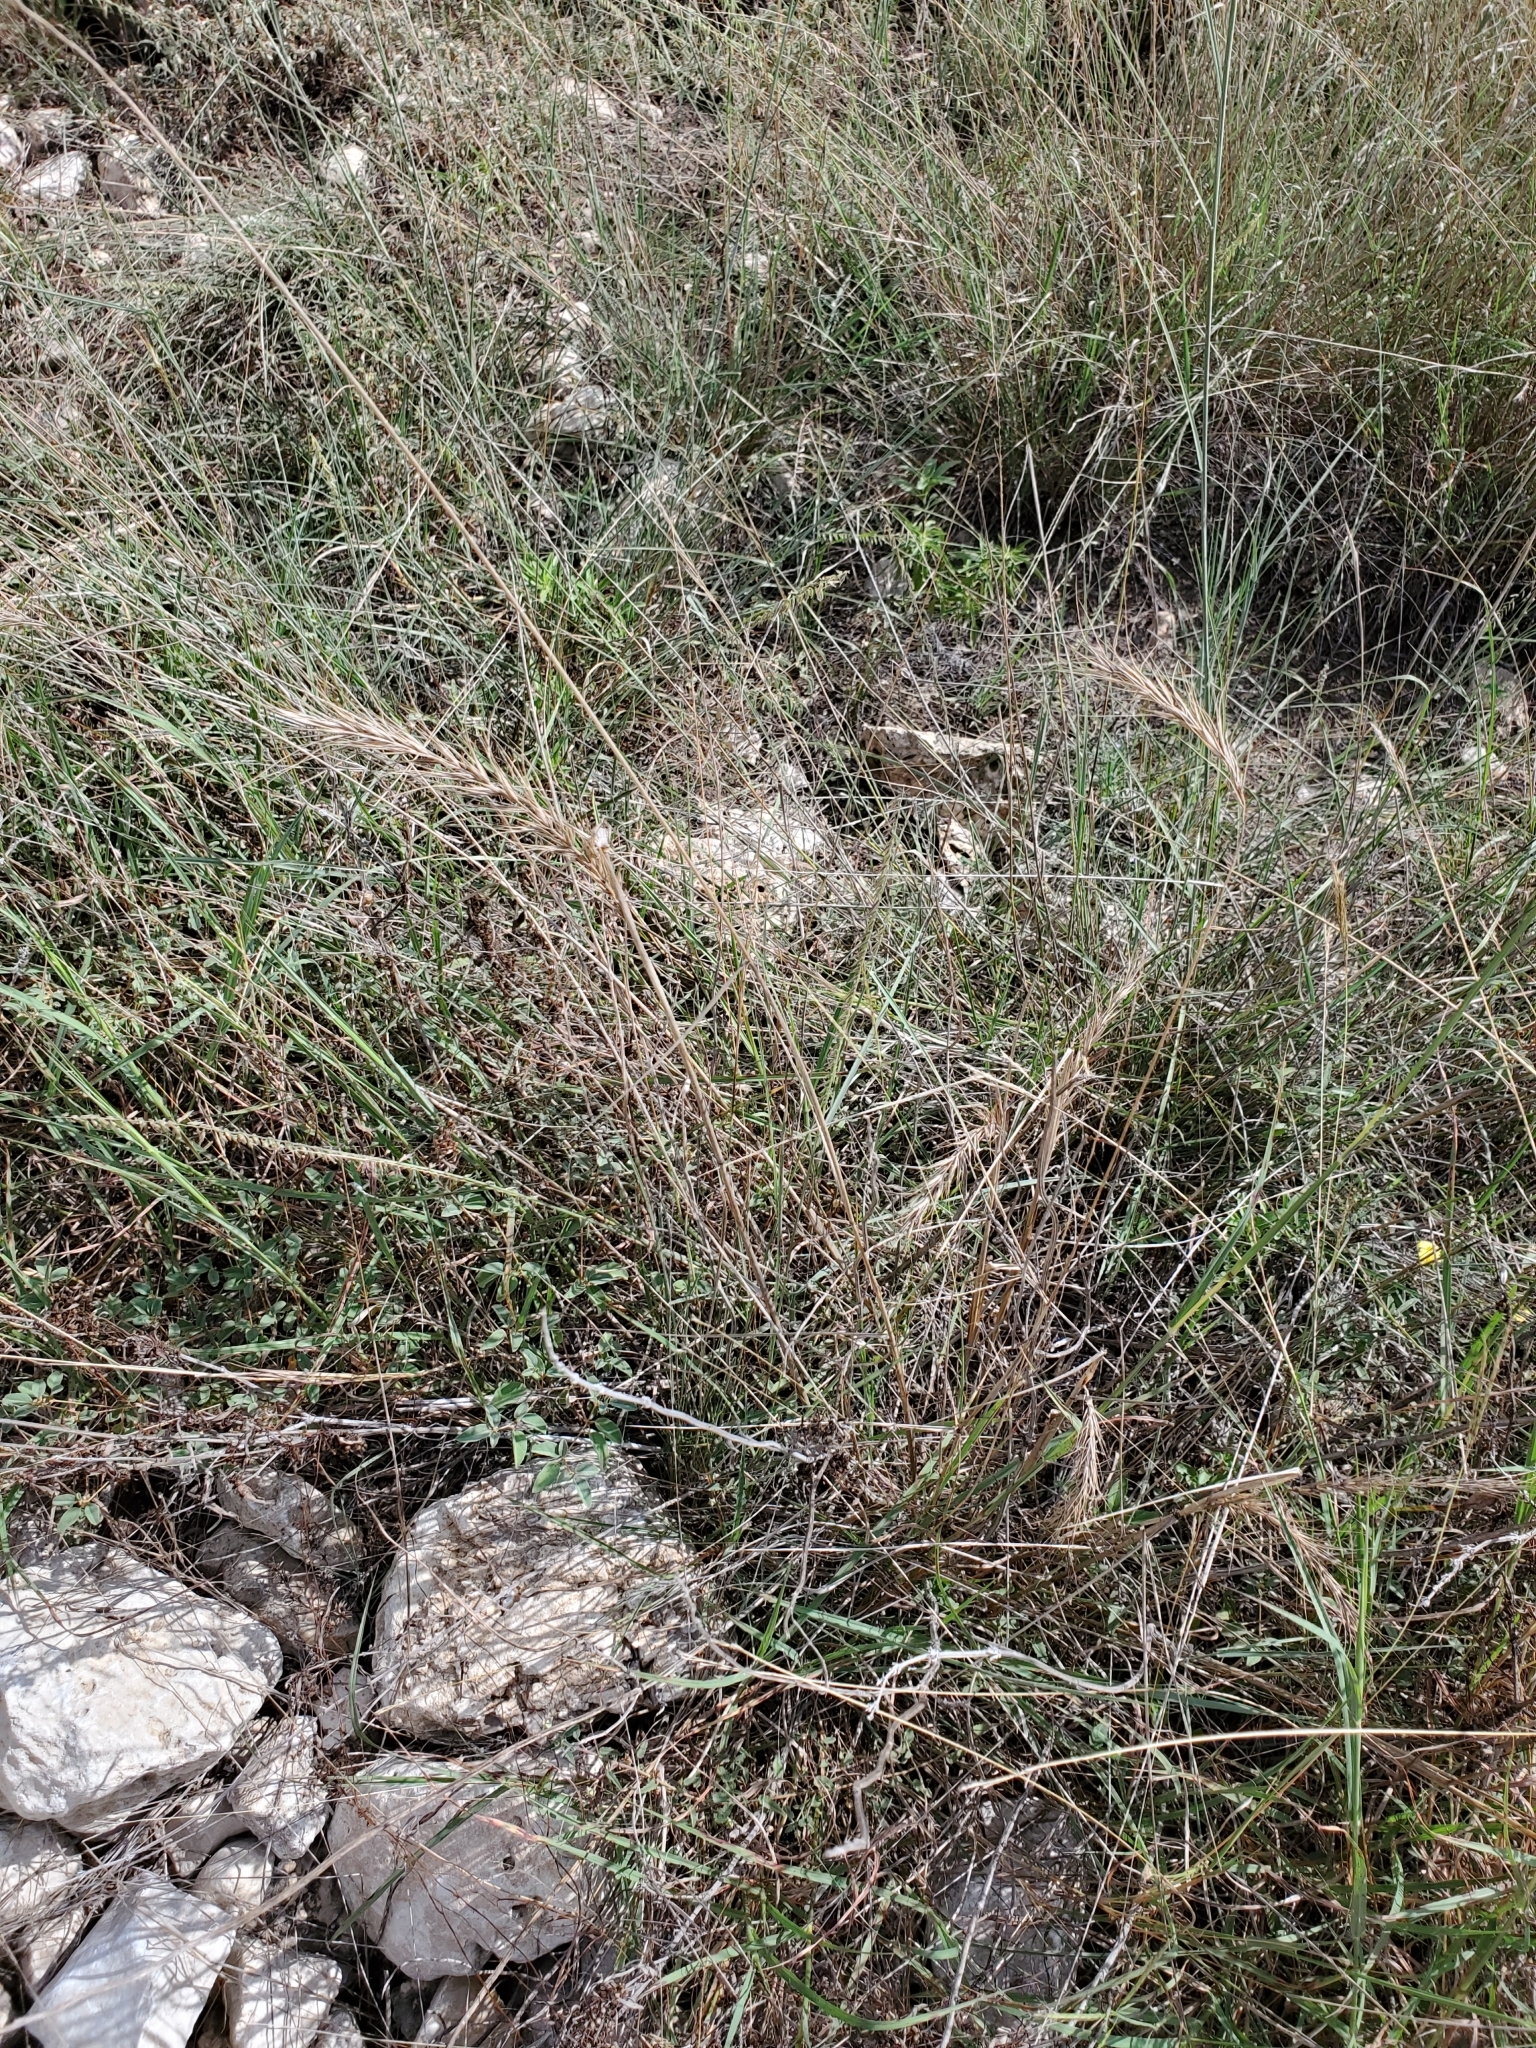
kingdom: Plantae
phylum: Tracheophyta
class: Liliopsida
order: Poales
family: Poaceae
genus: Elymus
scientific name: Elymus interruptus
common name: Southwestern wild rye
